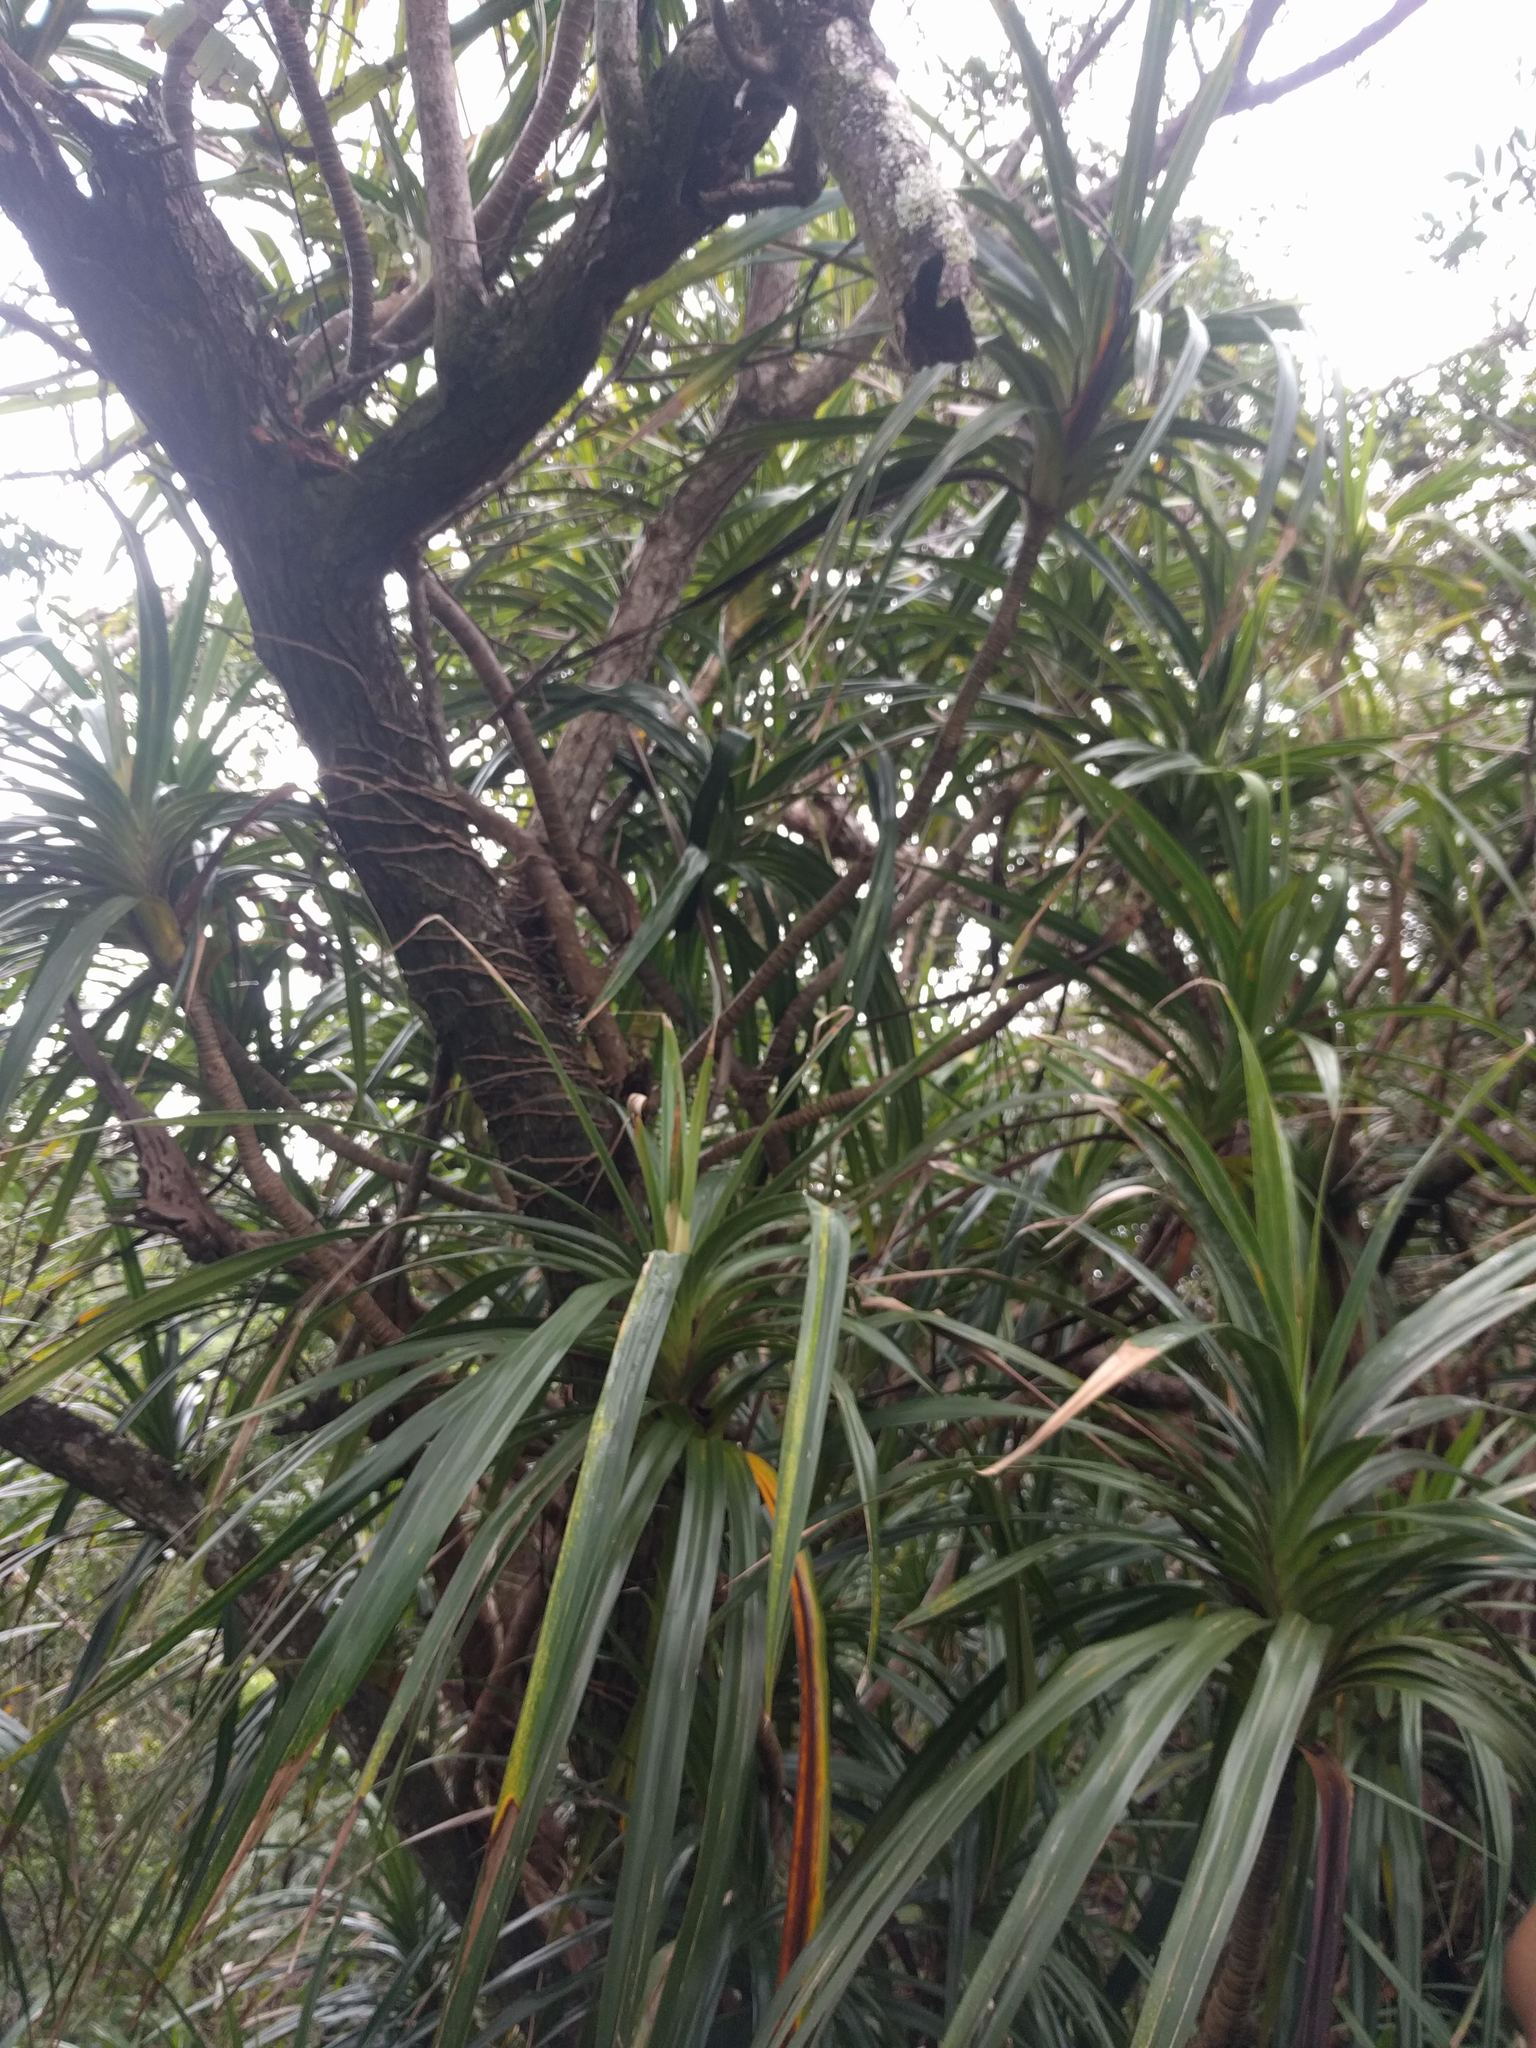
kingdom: Plantae
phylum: Tracheophyta
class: Liliopsida
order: Pandanales
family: Pandanaceae
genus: Freycinetia
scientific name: Freycinetia arborea
